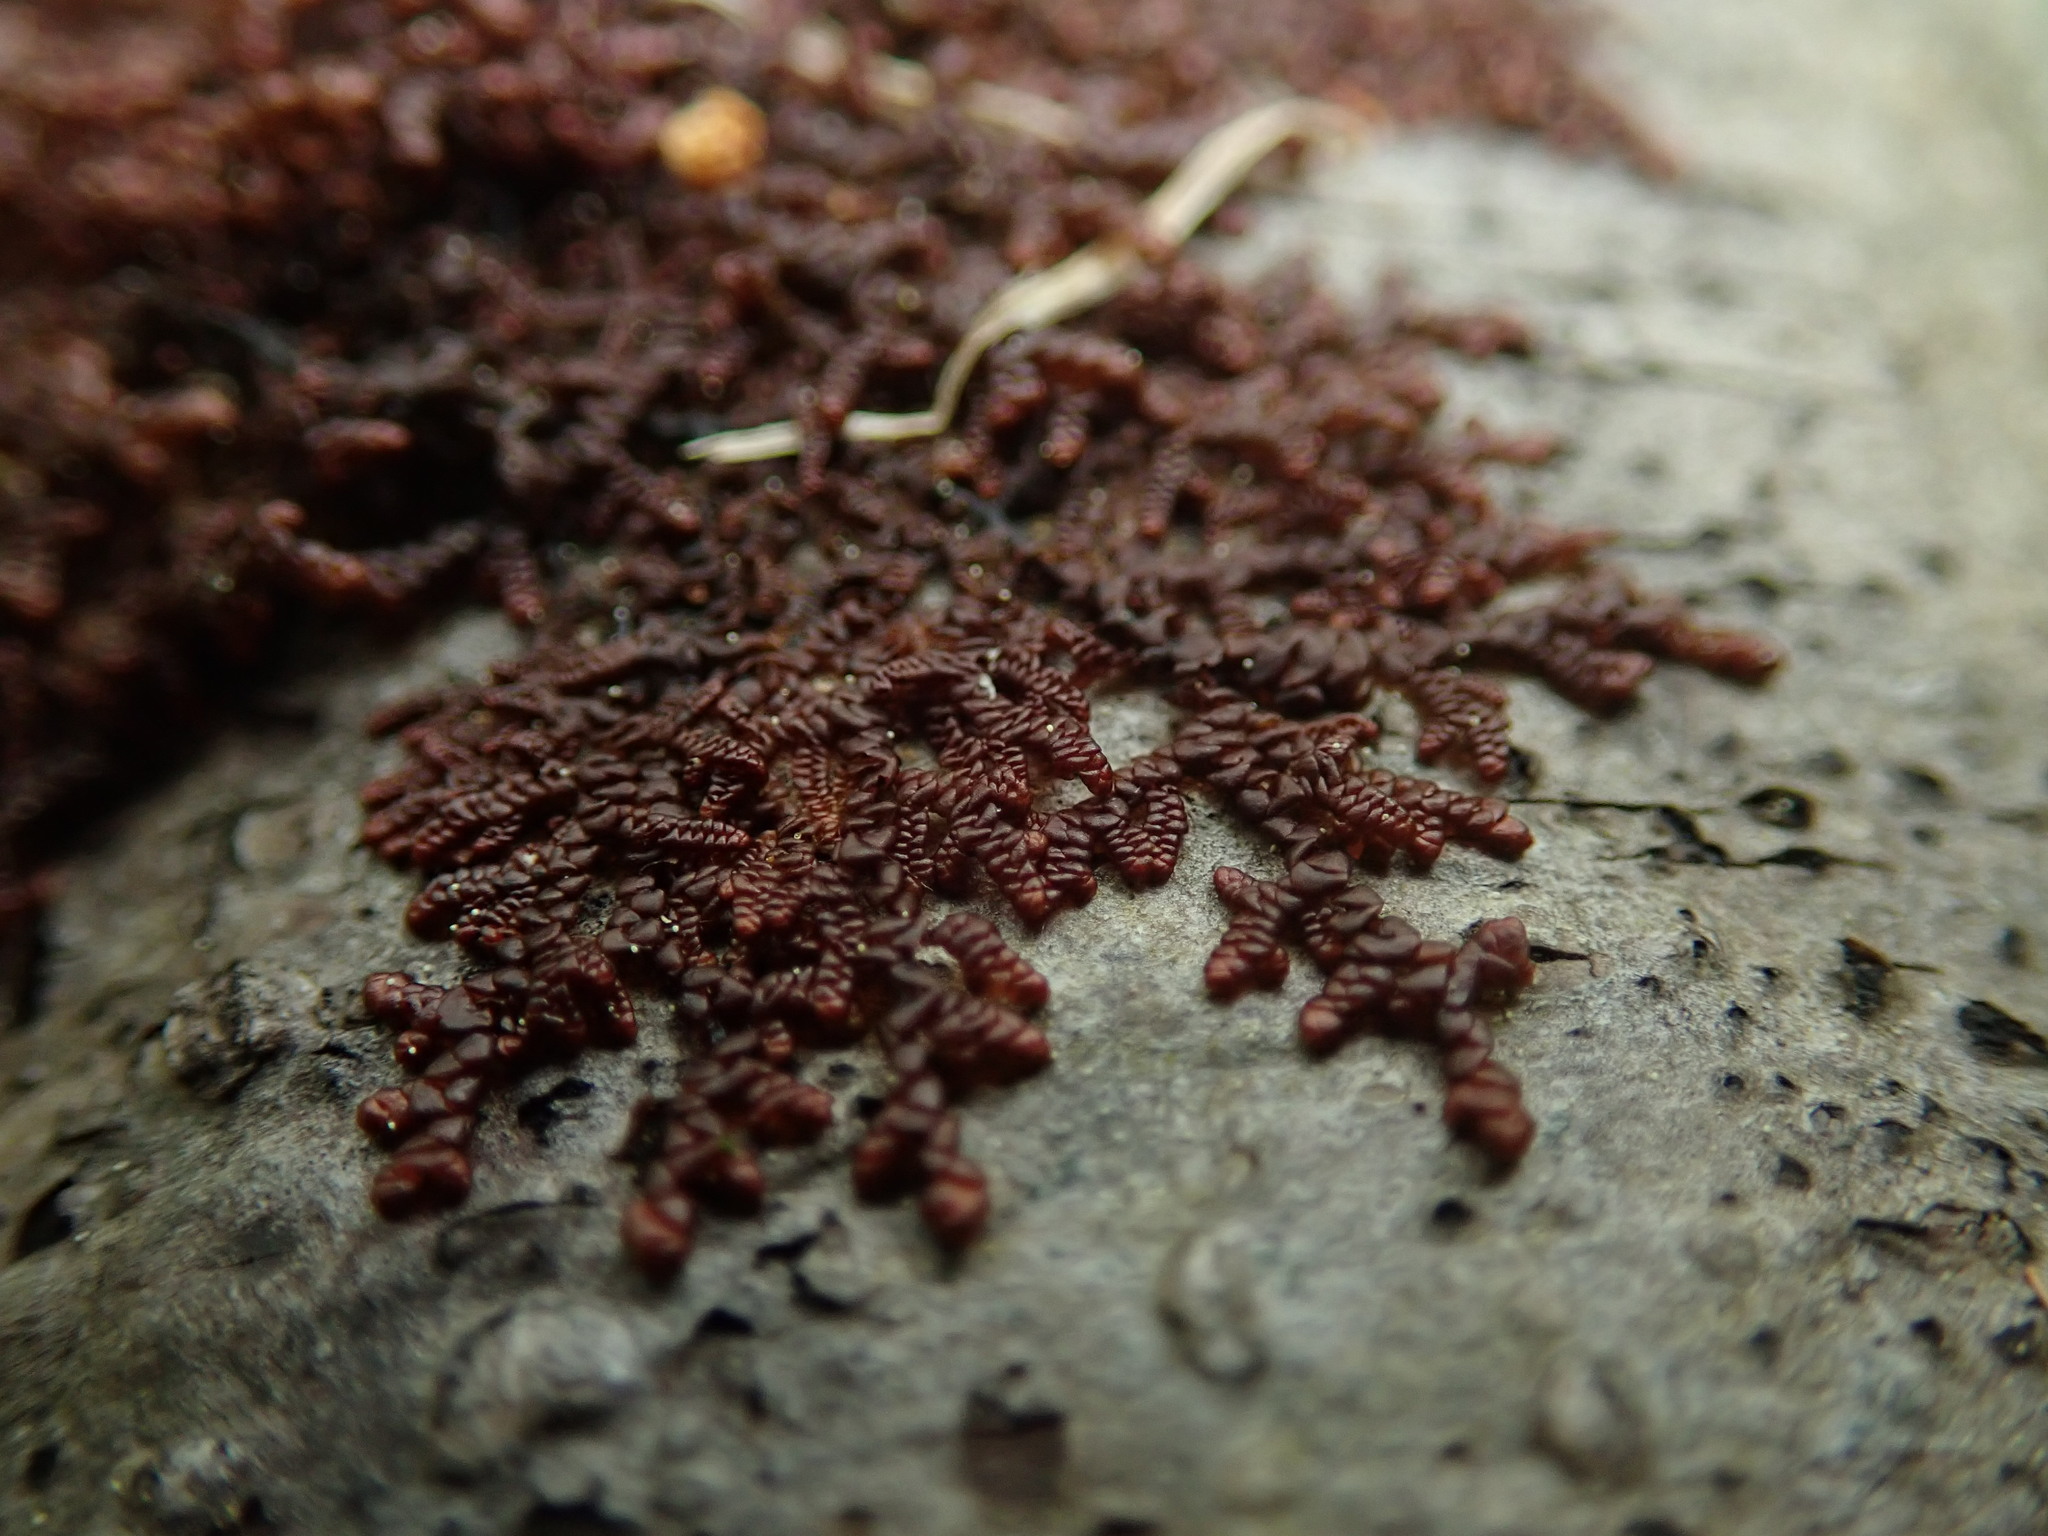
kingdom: Plantae
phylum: Marchantiophyta
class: Jungermanniopsida
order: Porellales
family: Frullaniaceae
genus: Frullania
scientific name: Frullania nisquallensis
